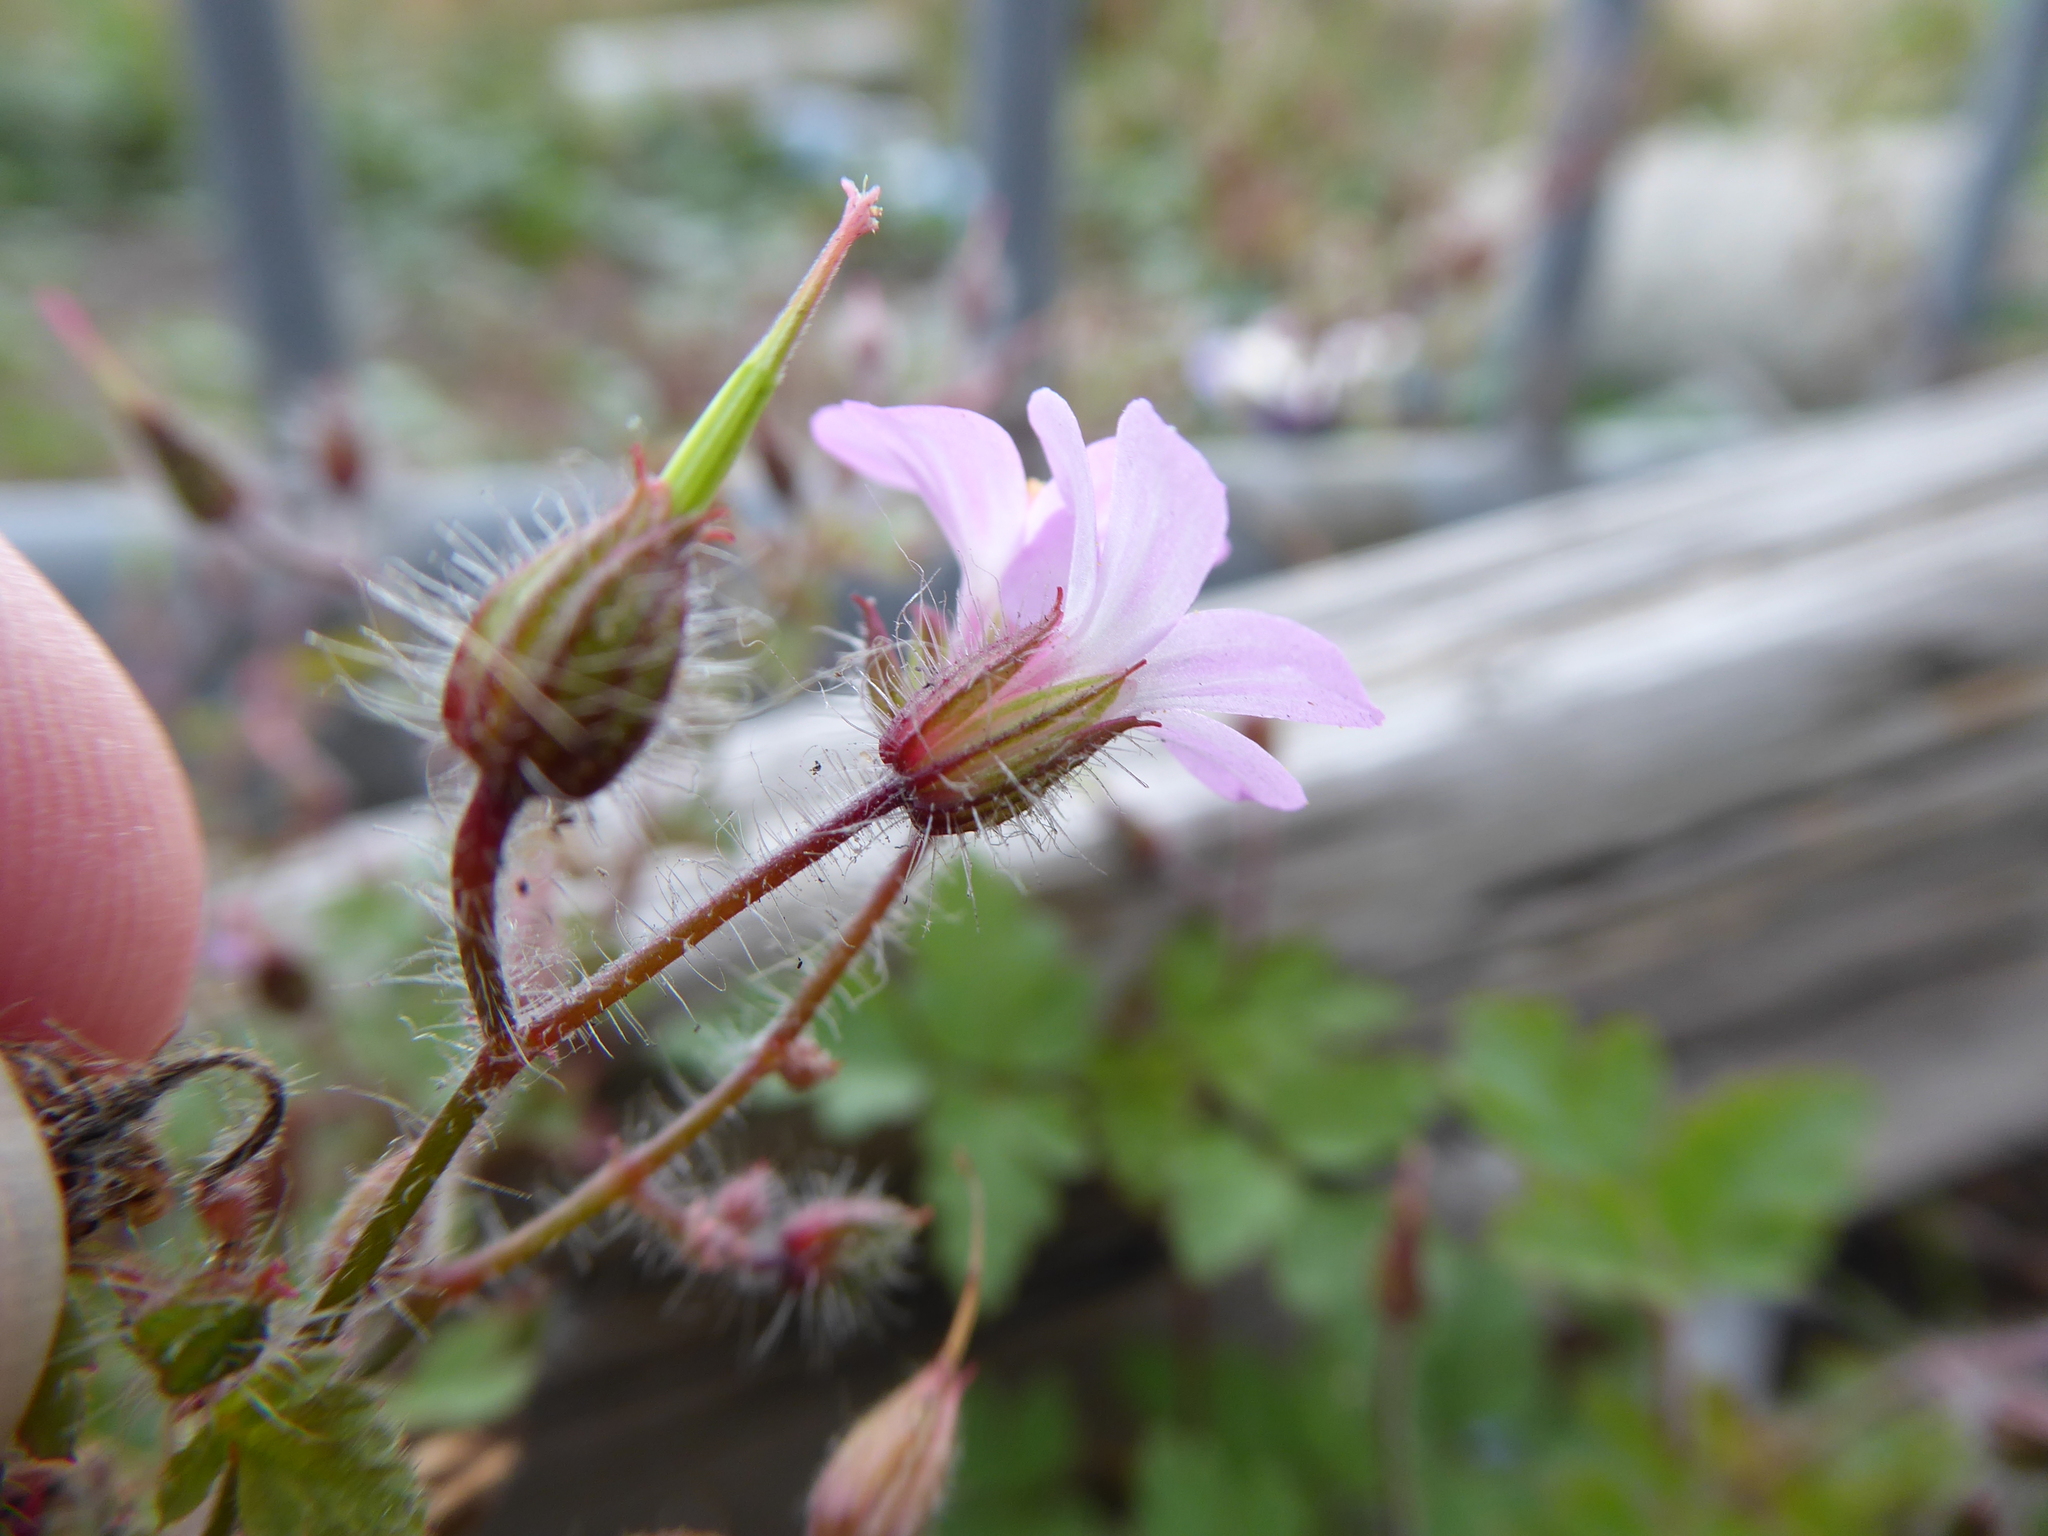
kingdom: Plantae
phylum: Tracheophyta
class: Magnoliopsida
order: Geraniales
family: Geraniaceae
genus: Geranium
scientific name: Geranium robertianum
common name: Herb-robert
